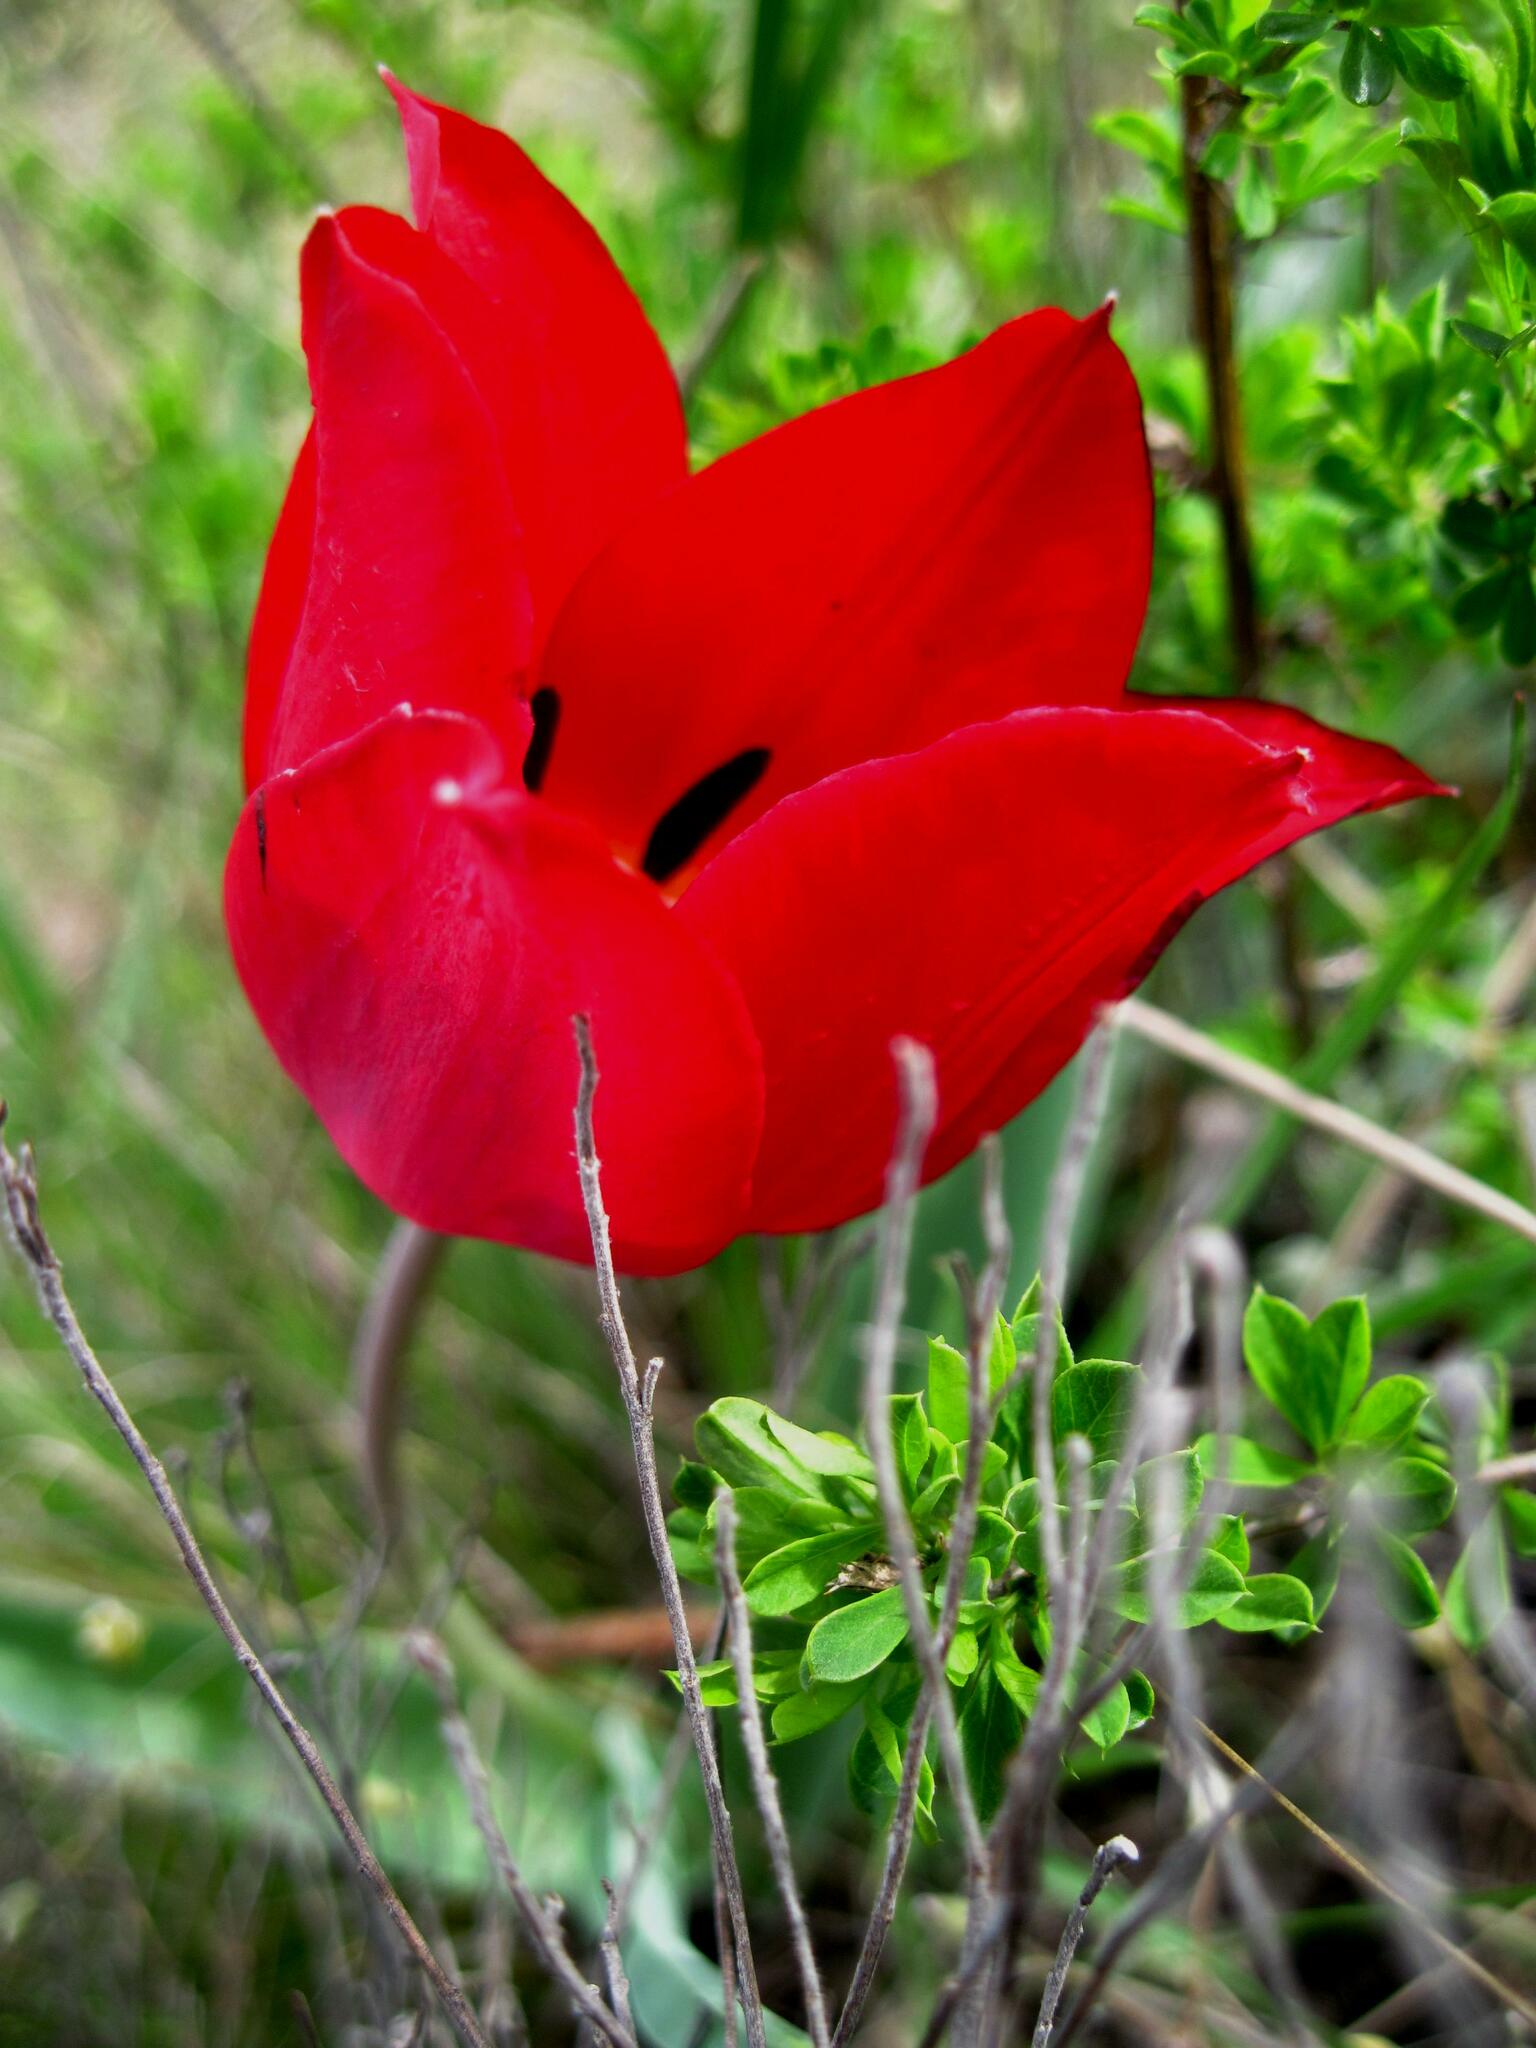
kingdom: Plantae
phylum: Tracheophyta
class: Liliopsida
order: Liliales
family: Liliaceae
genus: Tulipa
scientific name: Tulipa suaveolens
